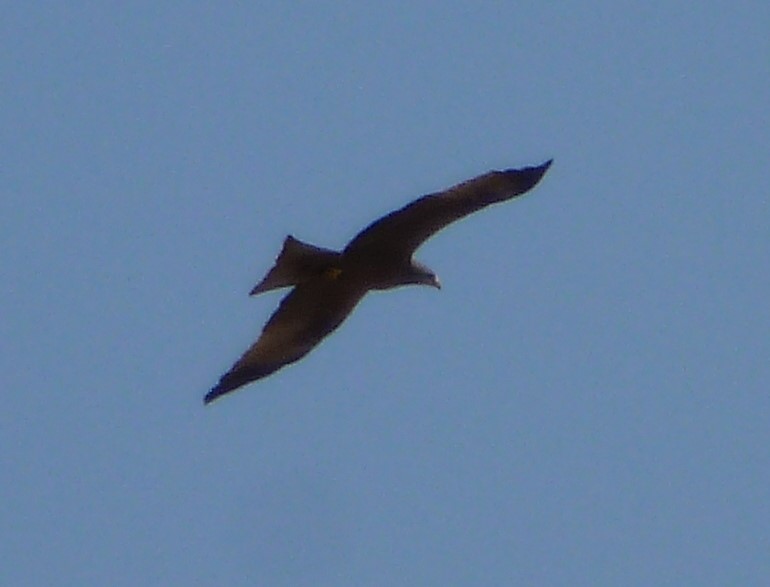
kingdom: Animalia
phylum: Chordata
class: Aves
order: Accipitriformes
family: Accipitridae
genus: Milvus
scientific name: Milvus migrans
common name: Black kite
